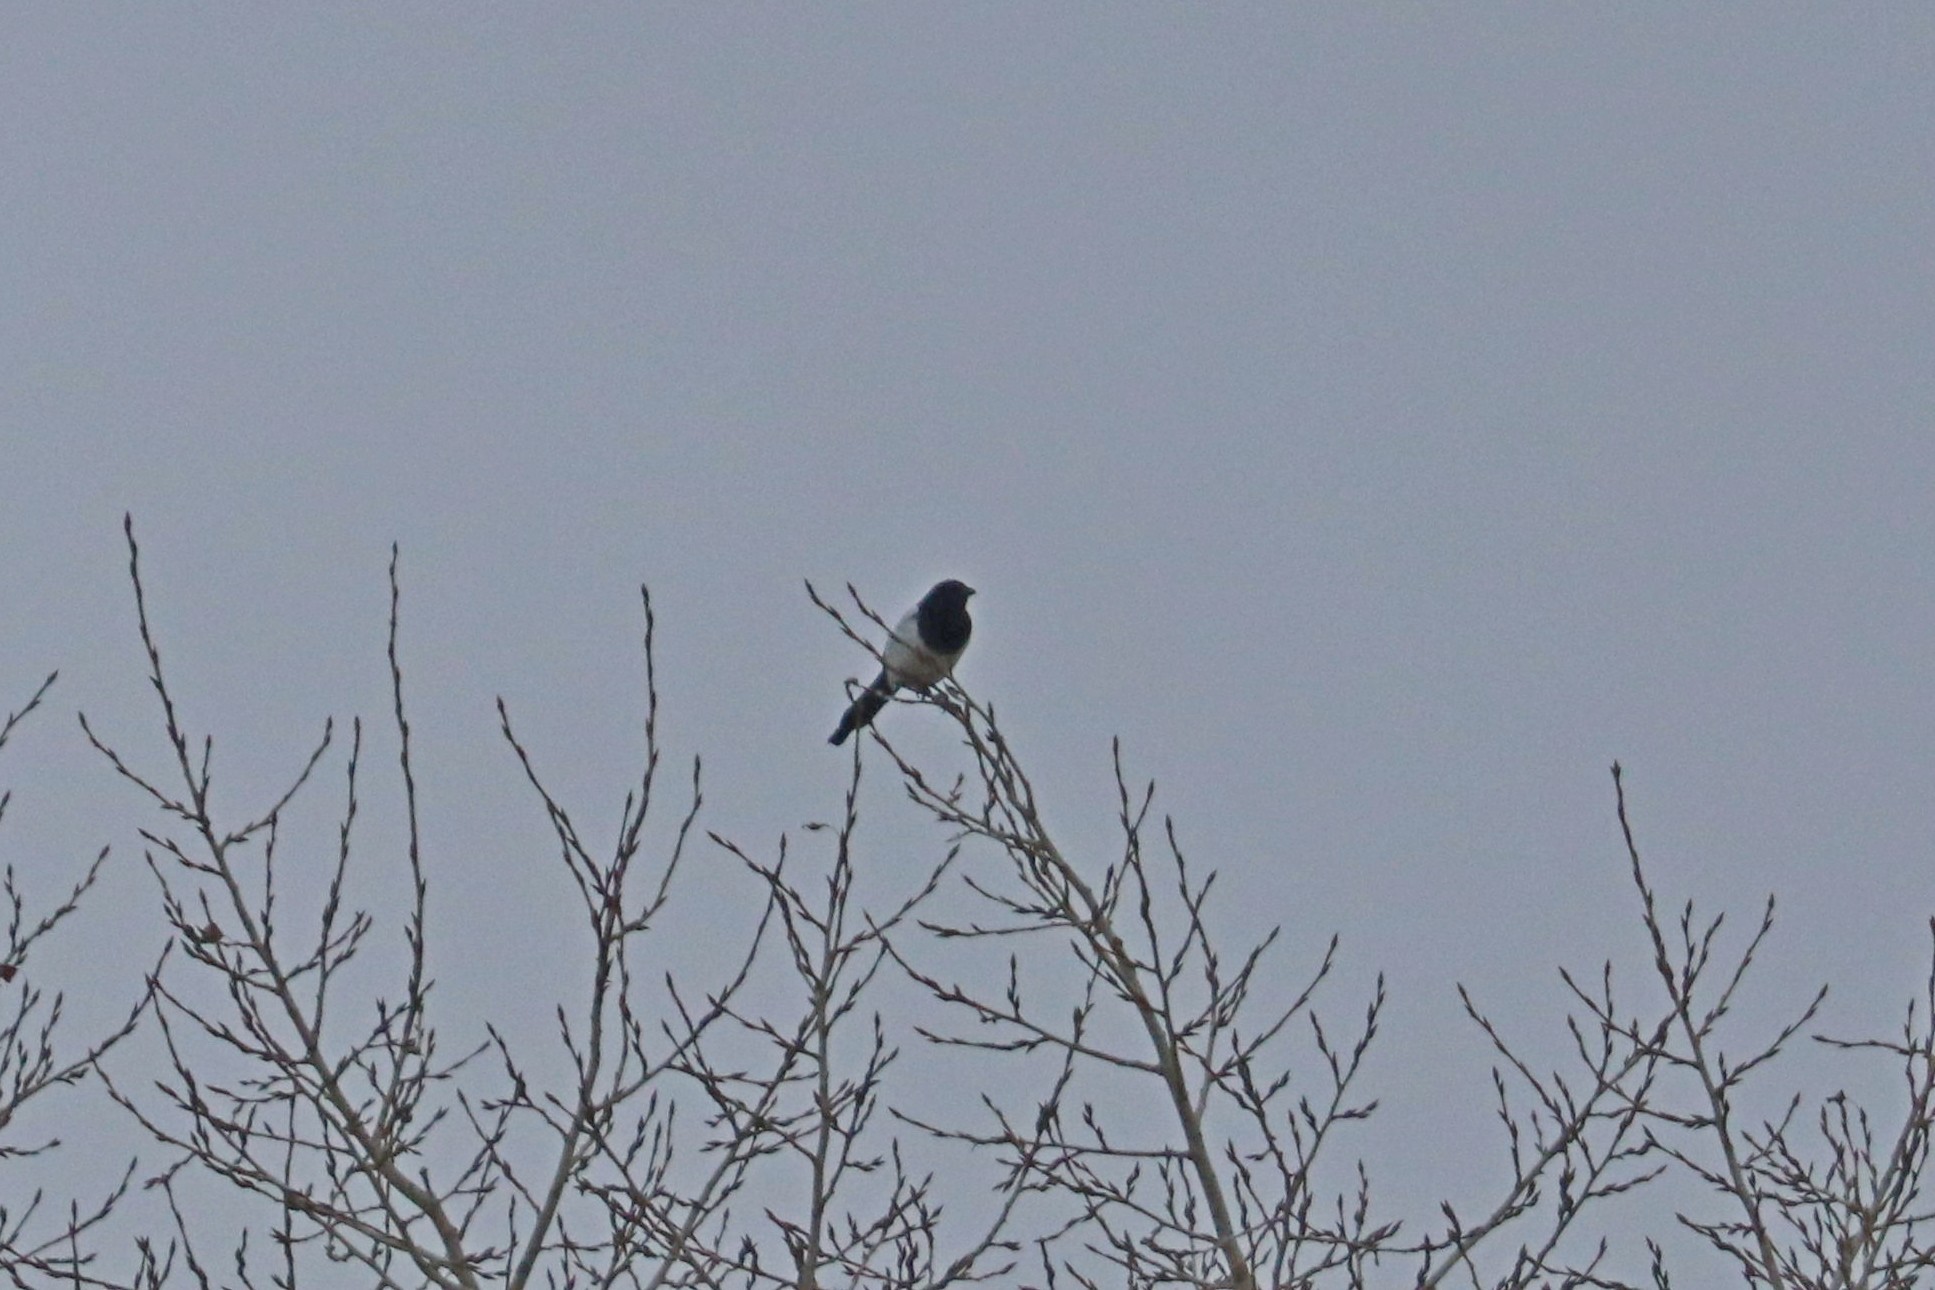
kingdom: Animalia
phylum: Chordata
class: Aves
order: Passeriformes
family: Corvidae
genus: Pica
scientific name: Pica pica
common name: Eurasian magpie
